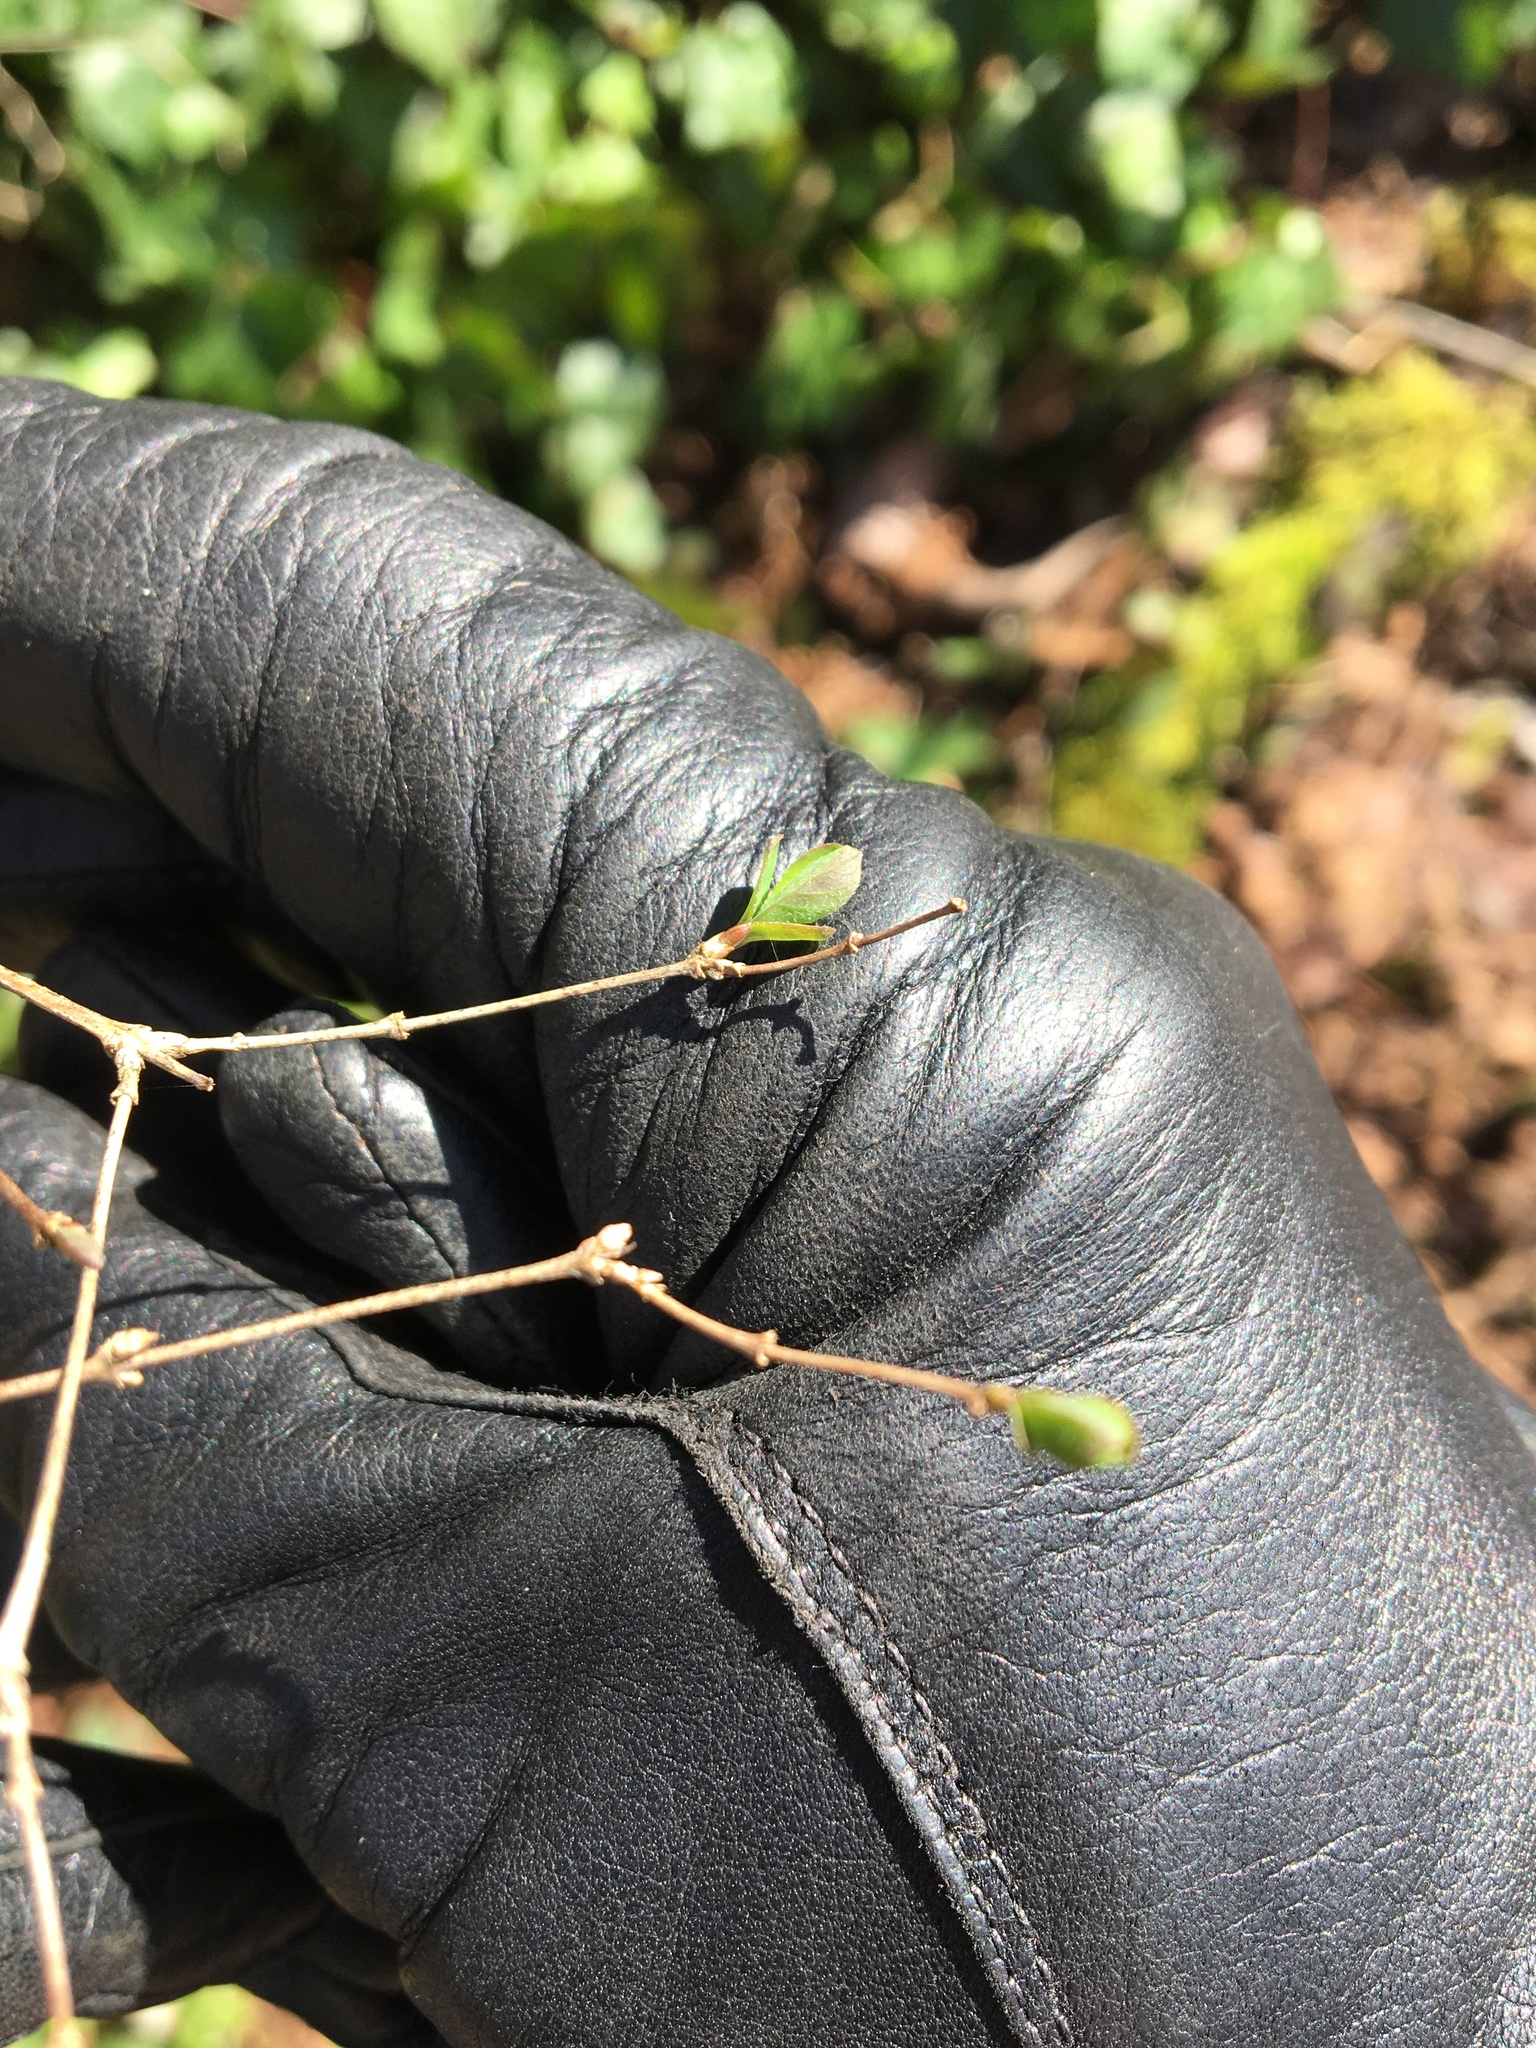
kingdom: Plantae
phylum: Tracheophyta
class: Magnoliopsida
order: Dipsacales
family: Caprifoliaceae
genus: Symphoricarpos
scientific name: Symphoricarpos albus
